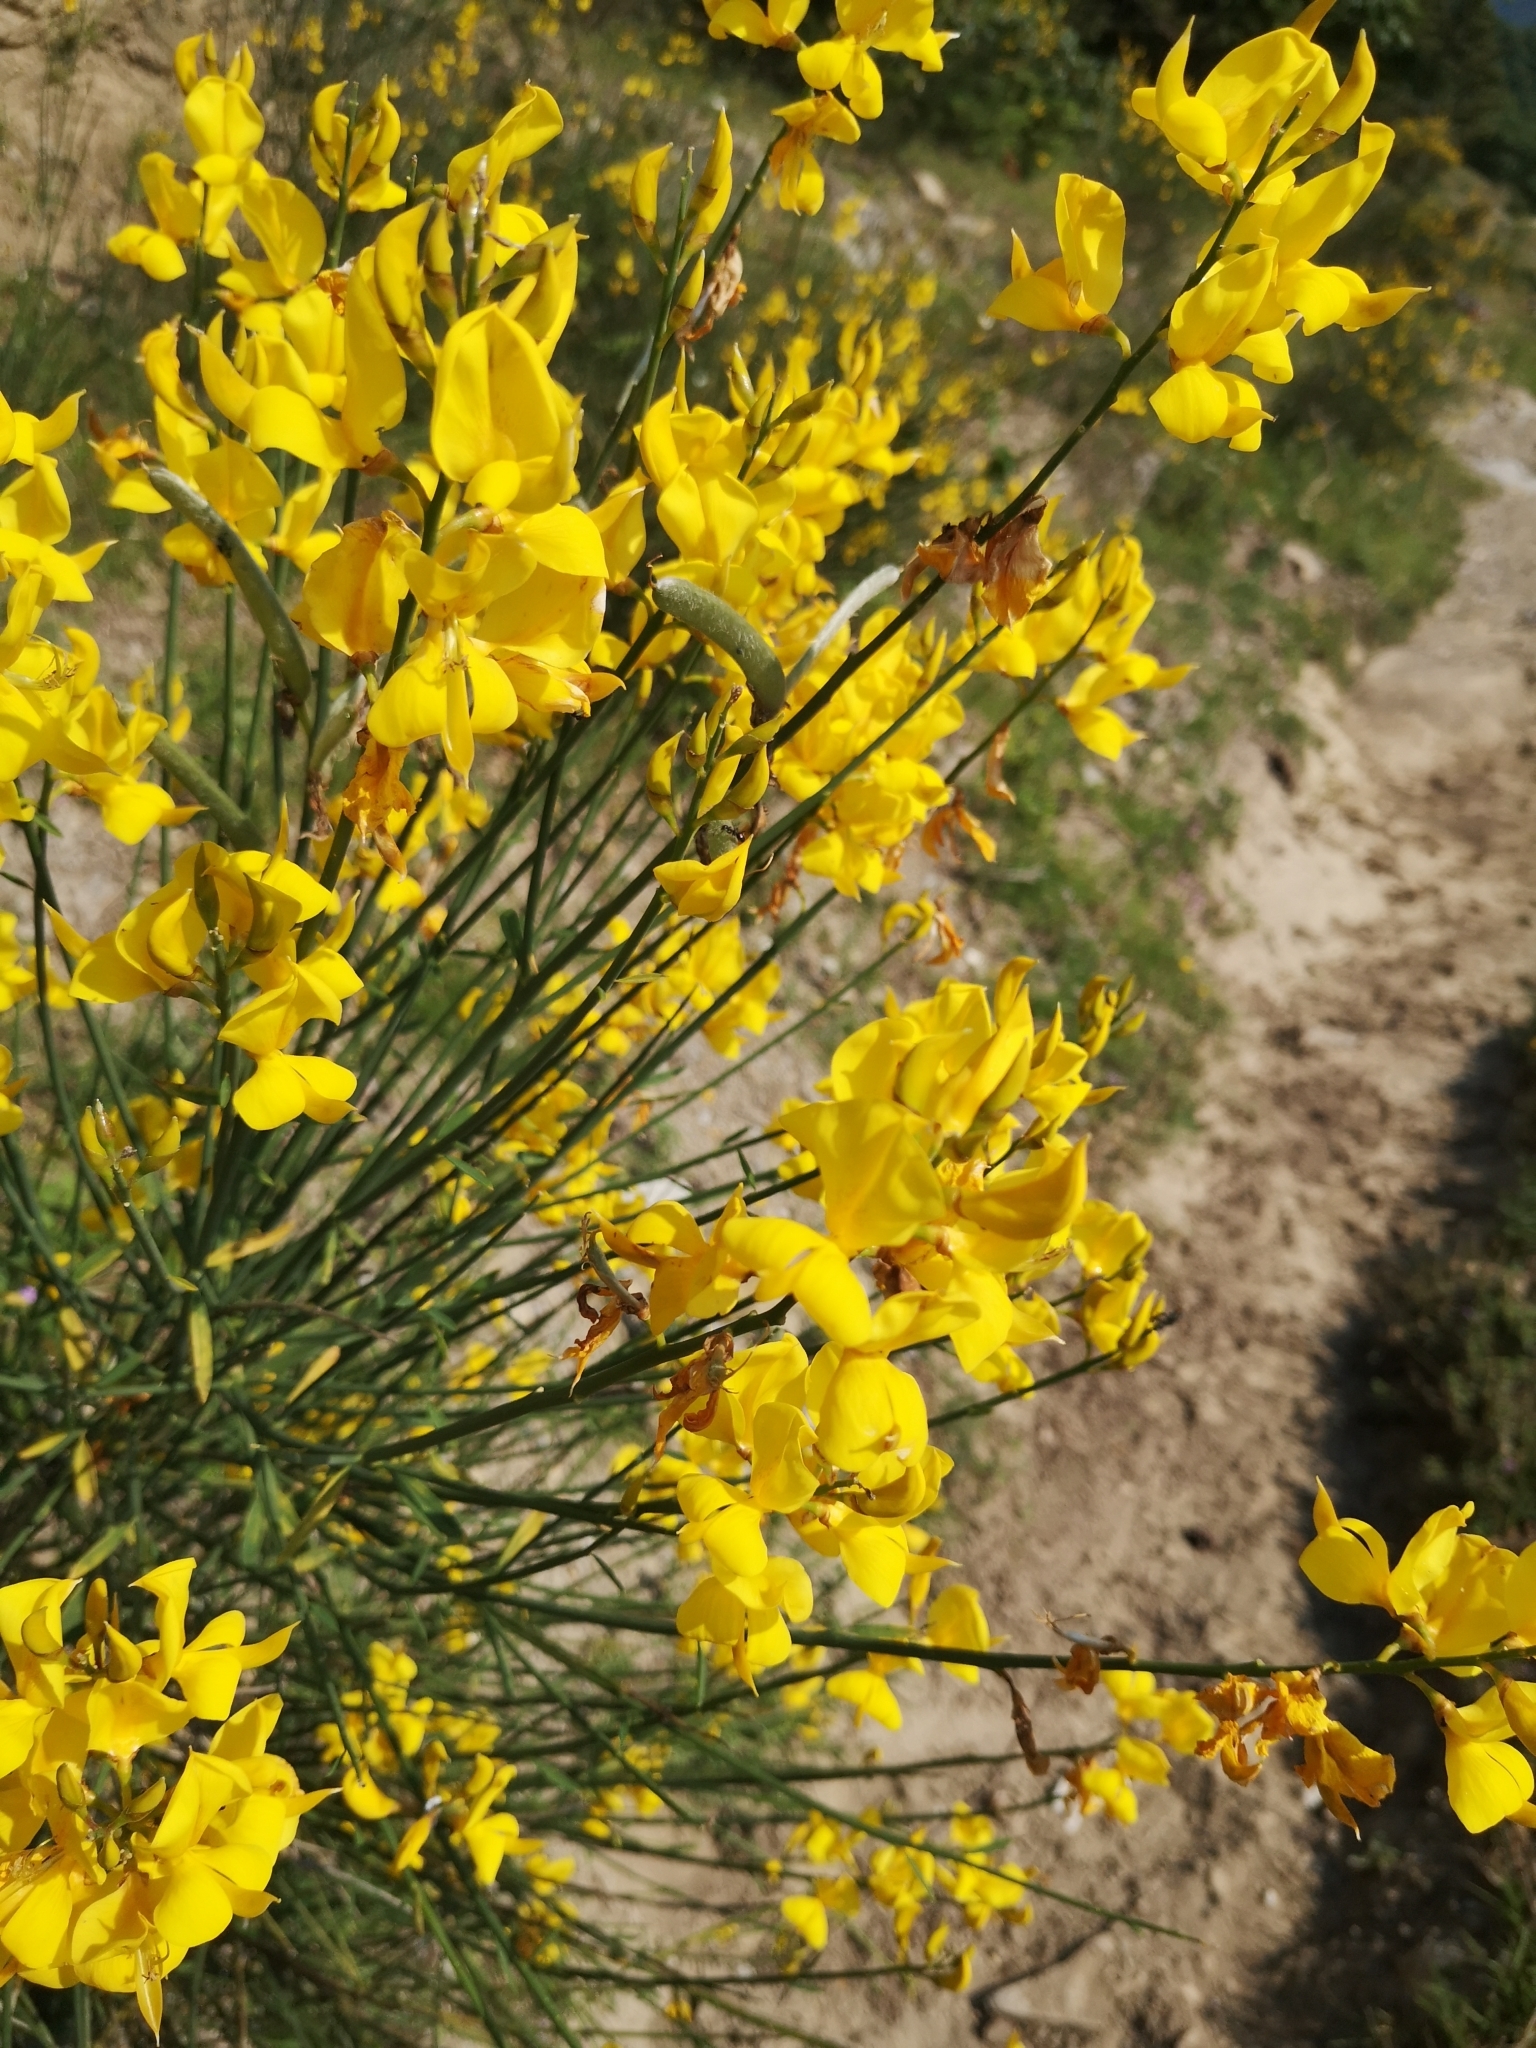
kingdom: Plantae
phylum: Tracheophyta
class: Magnoliopsida
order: Fabales
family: Fabaceae
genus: Spartium
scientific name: Spartium junceum
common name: Spanish broom
